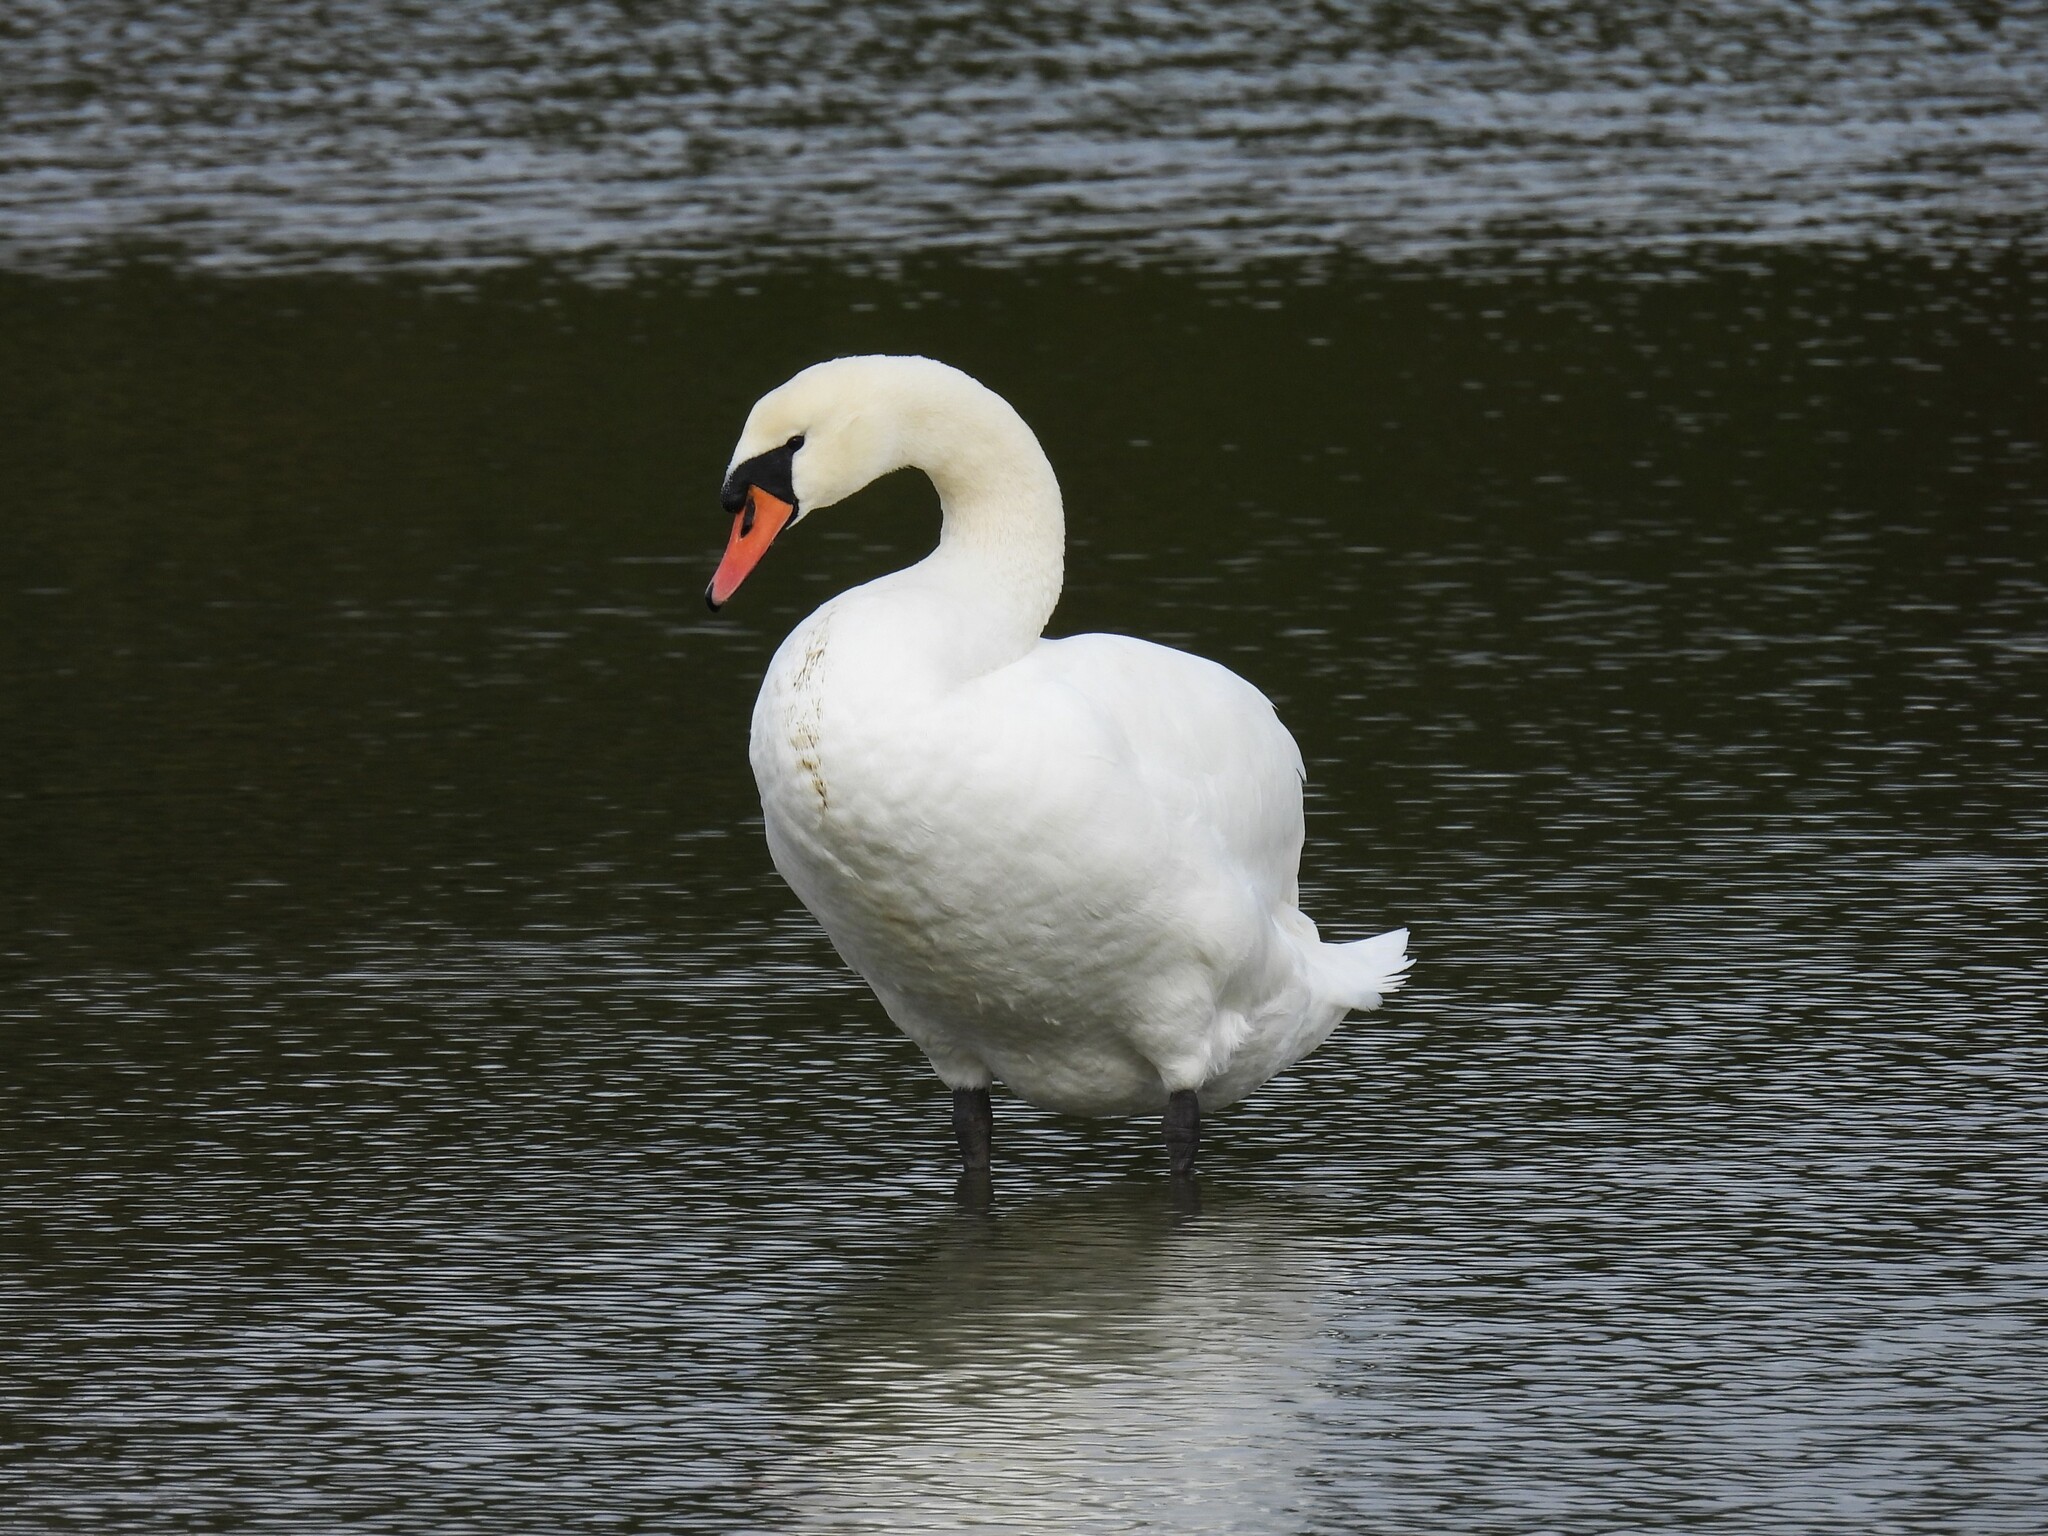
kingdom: Animalia
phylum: Chordata
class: Aves
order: Anseriformes
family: Anatidae
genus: Cygnus
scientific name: Cygnus olor
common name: Mute swan
